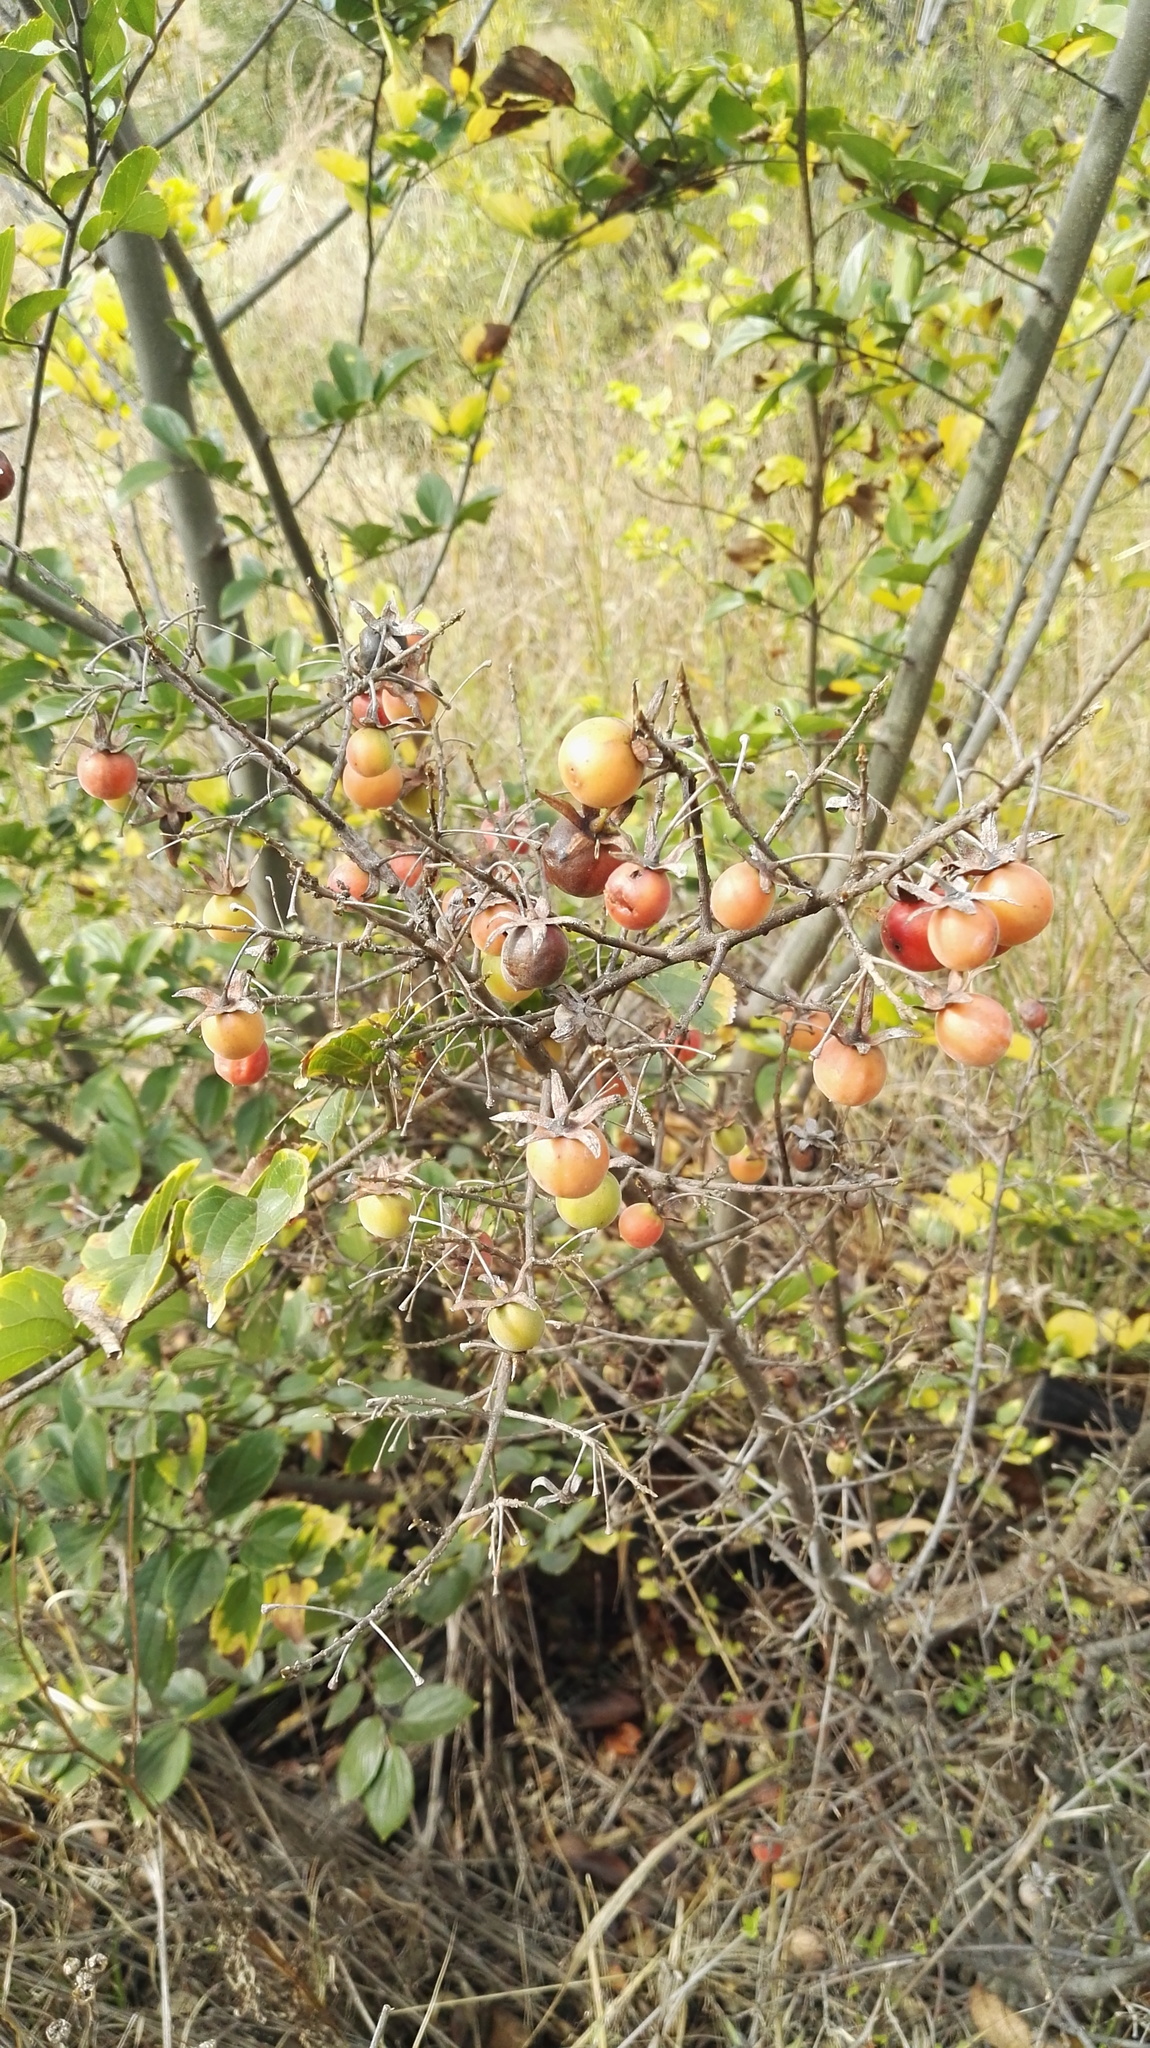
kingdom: Plantae
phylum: Tracheophyta
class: Magnoliopsida
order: Ericales
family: Ebenaceae
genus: Diospyros
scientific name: Diospyros lycioides
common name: Red star apple
